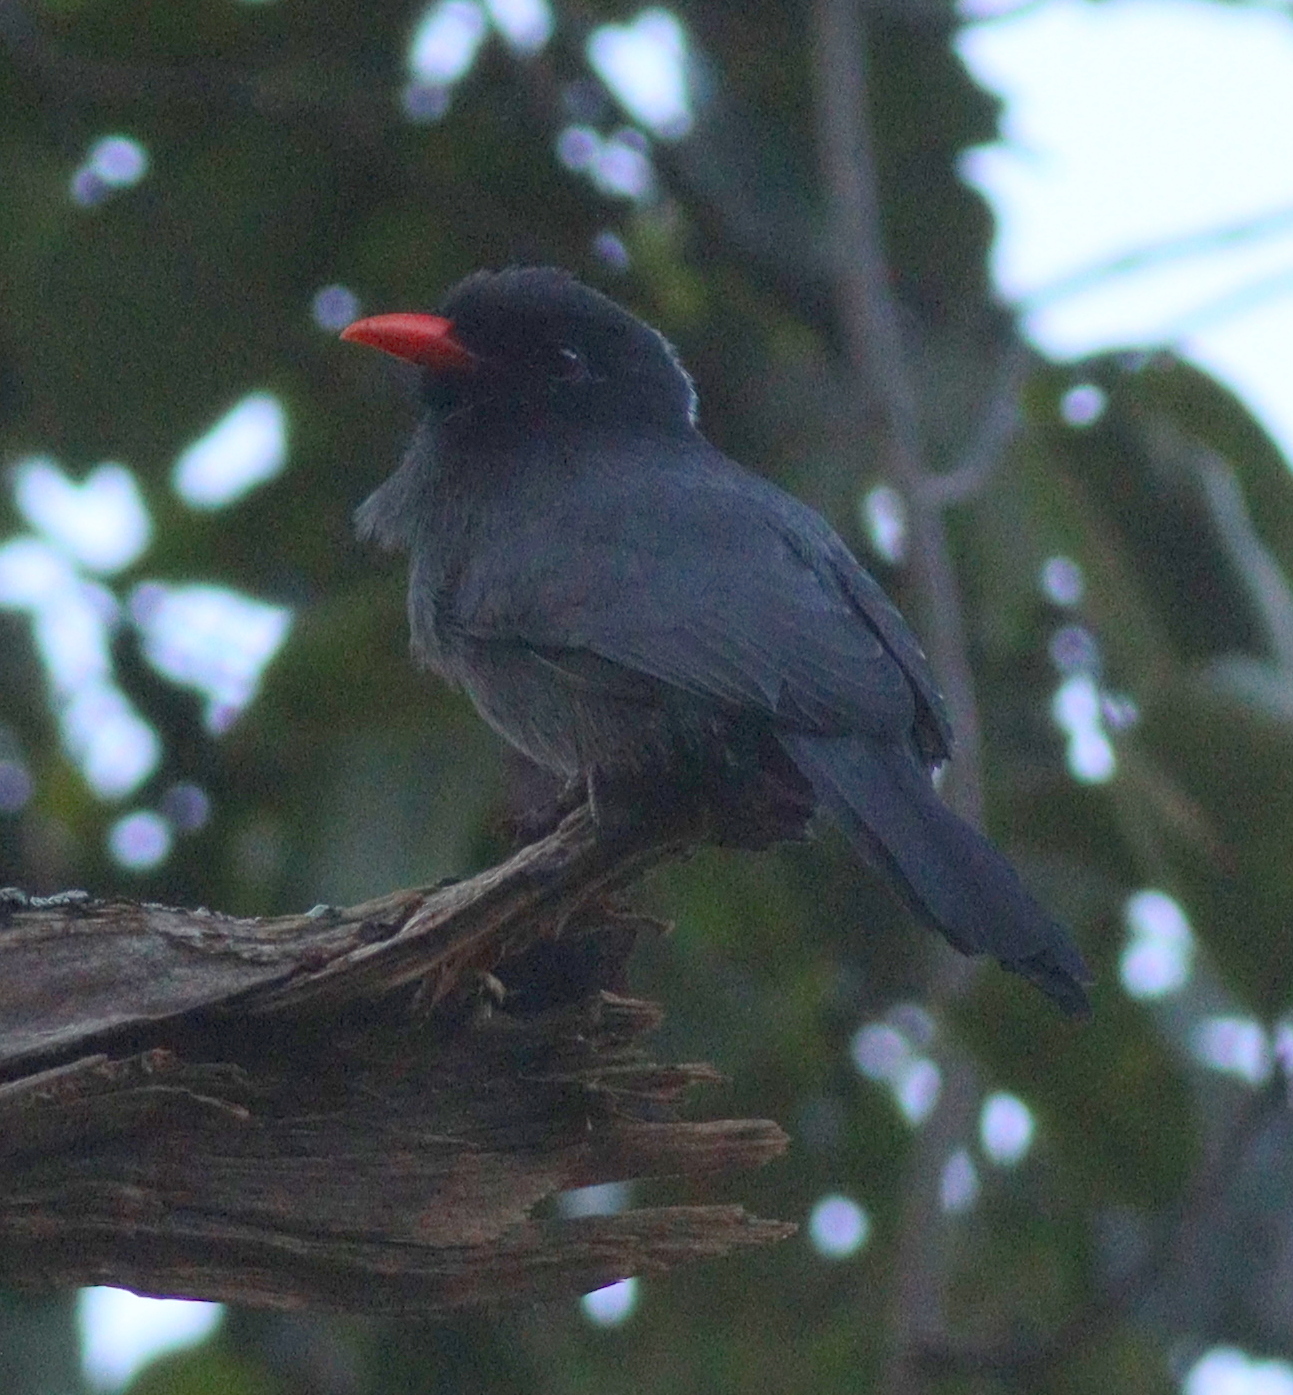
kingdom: Animalia
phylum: Chordata
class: Aves
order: Piciformes
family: Bucconidae
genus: Monasa
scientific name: Monasa nigrifrons
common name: Black-fronted nunbird
